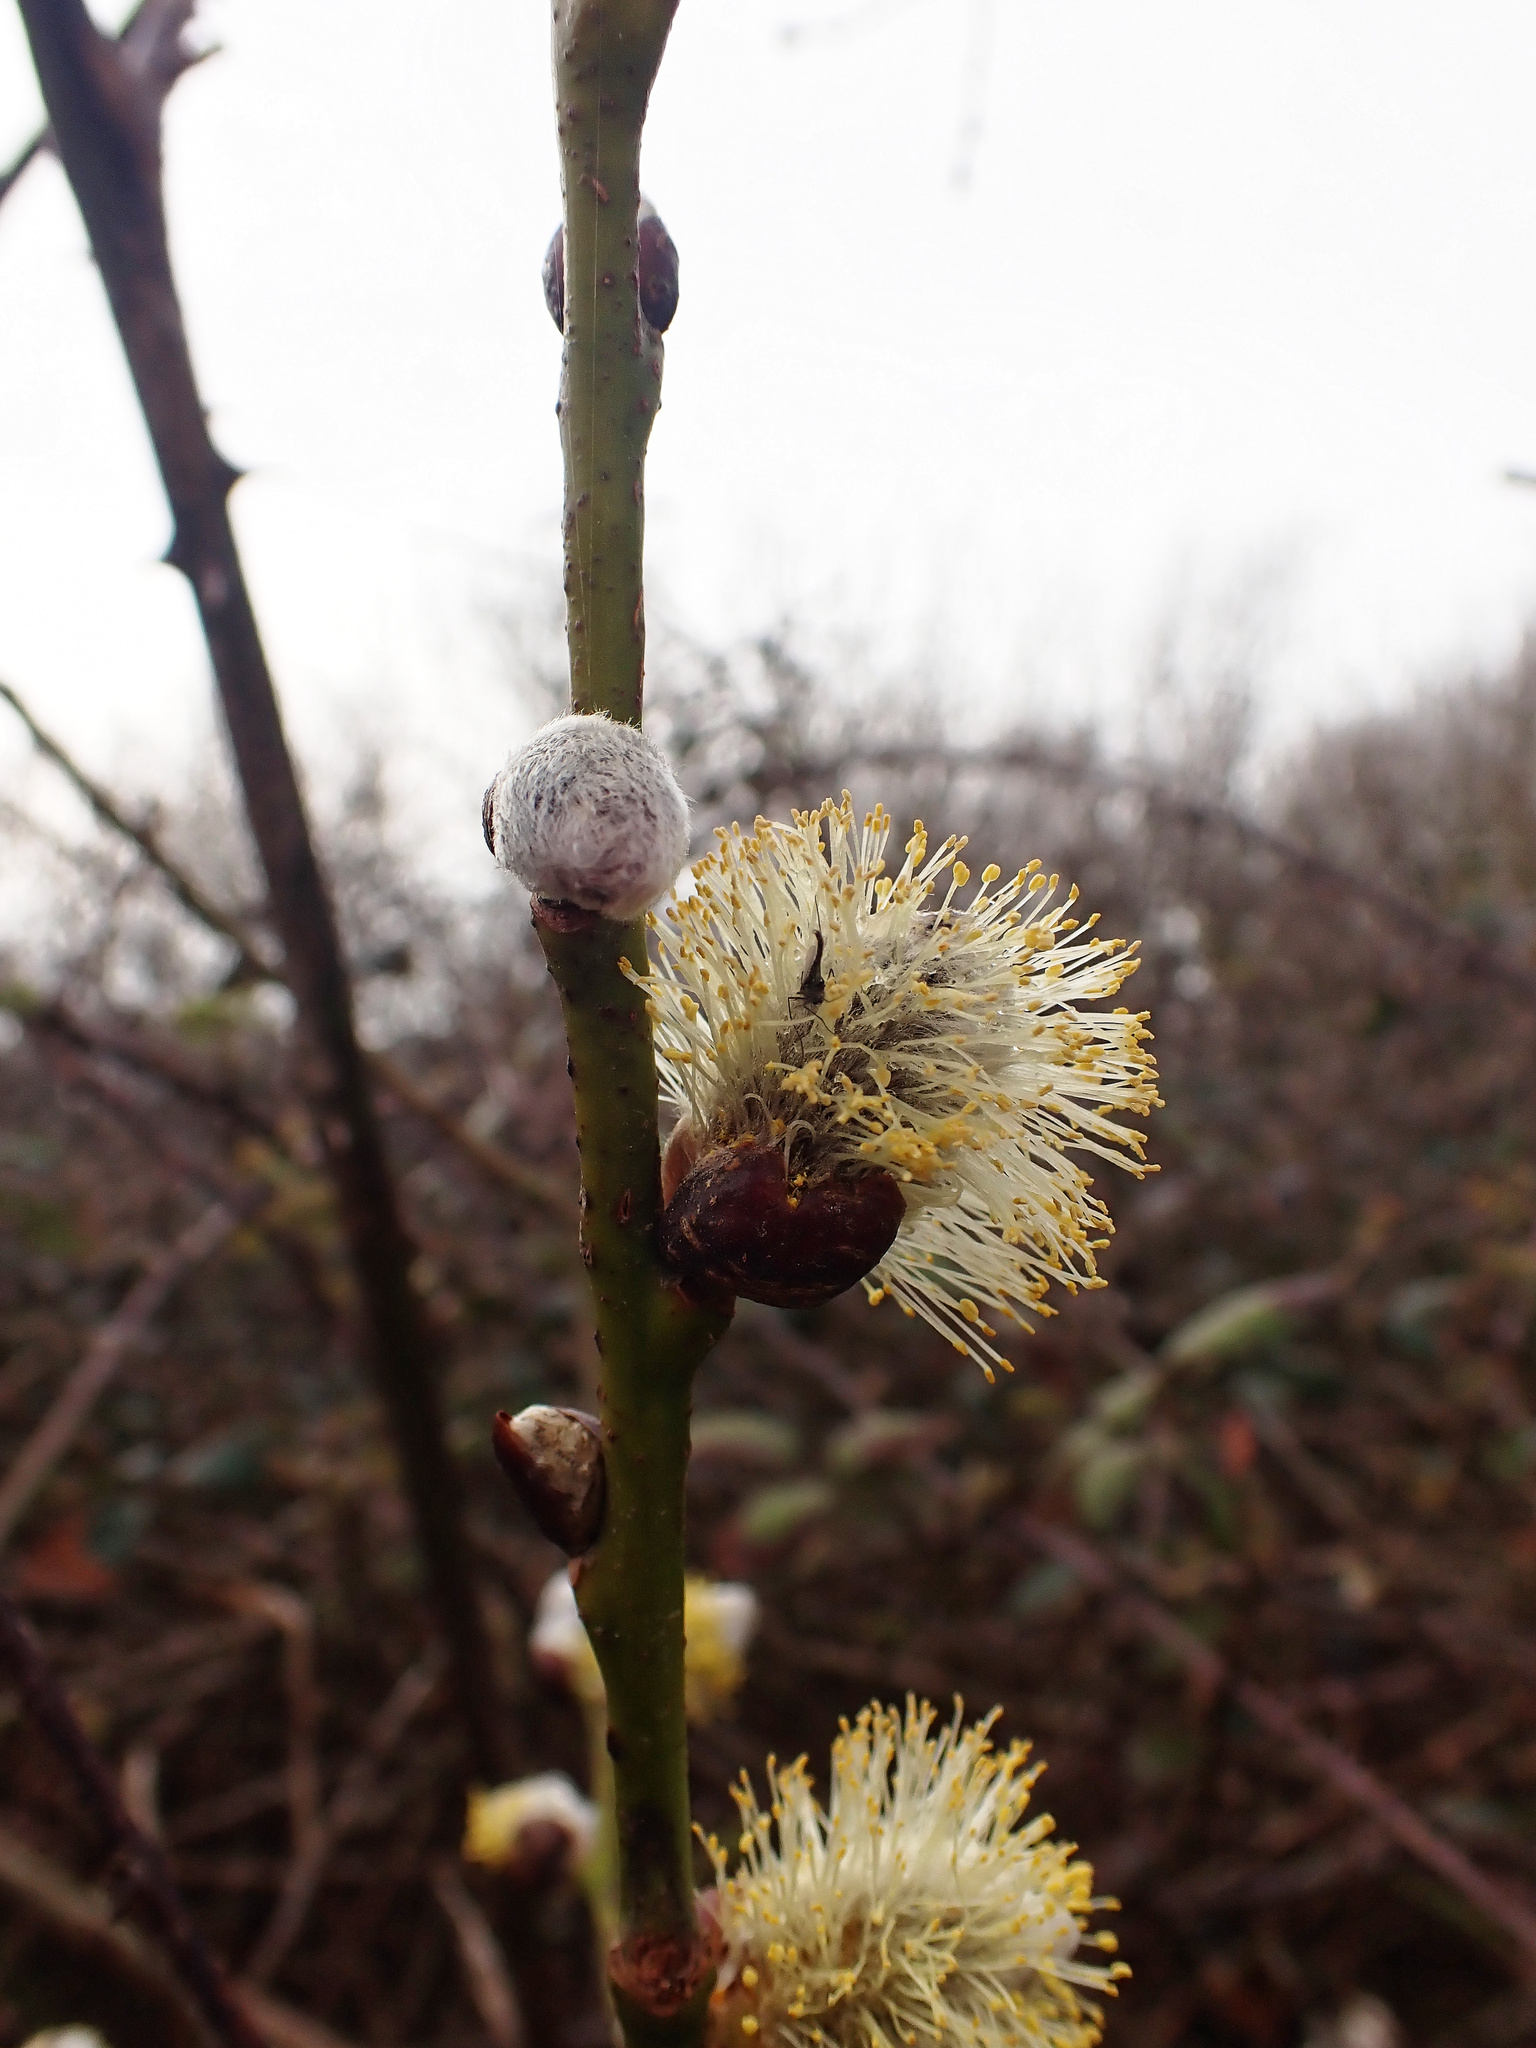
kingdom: Plantae
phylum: Tracheophyta
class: Magnoliopsida
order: Malpighiales
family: Salicaceae
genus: Salix
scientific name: Salix caprea
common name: Goat willow
